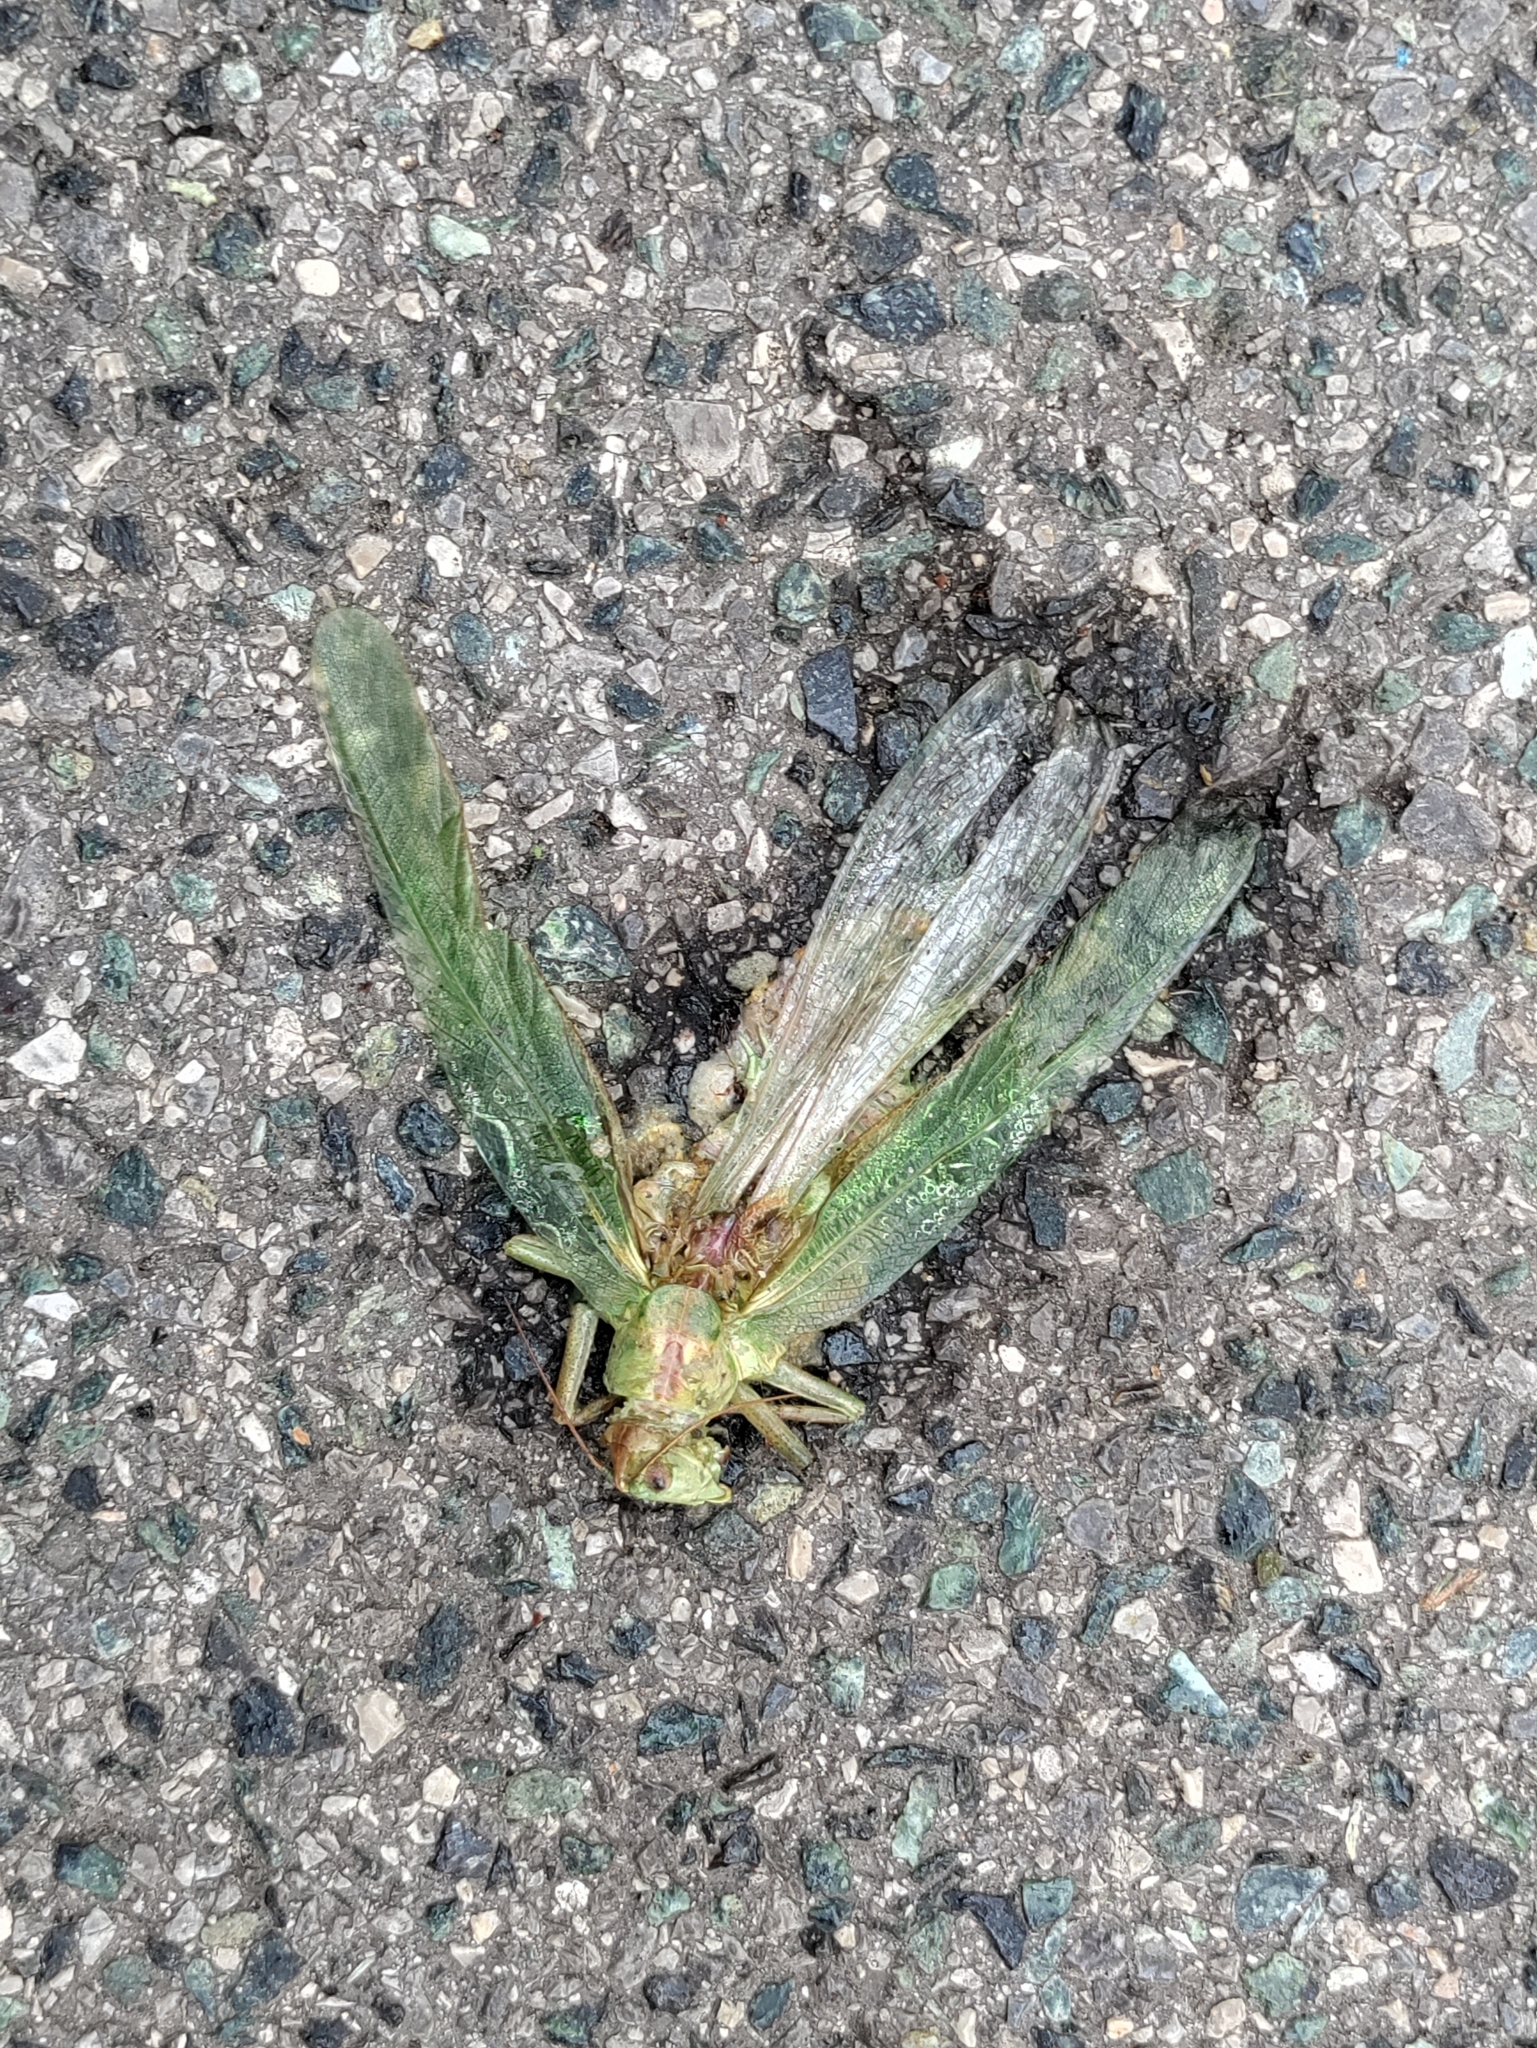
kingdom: Animalia
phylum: Arthropoda
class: Insecta
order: Orthoptera
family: Tettigoniidae
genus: Tettigonia
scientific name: Tettigonia viridissima
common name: Great green bush-cricket
